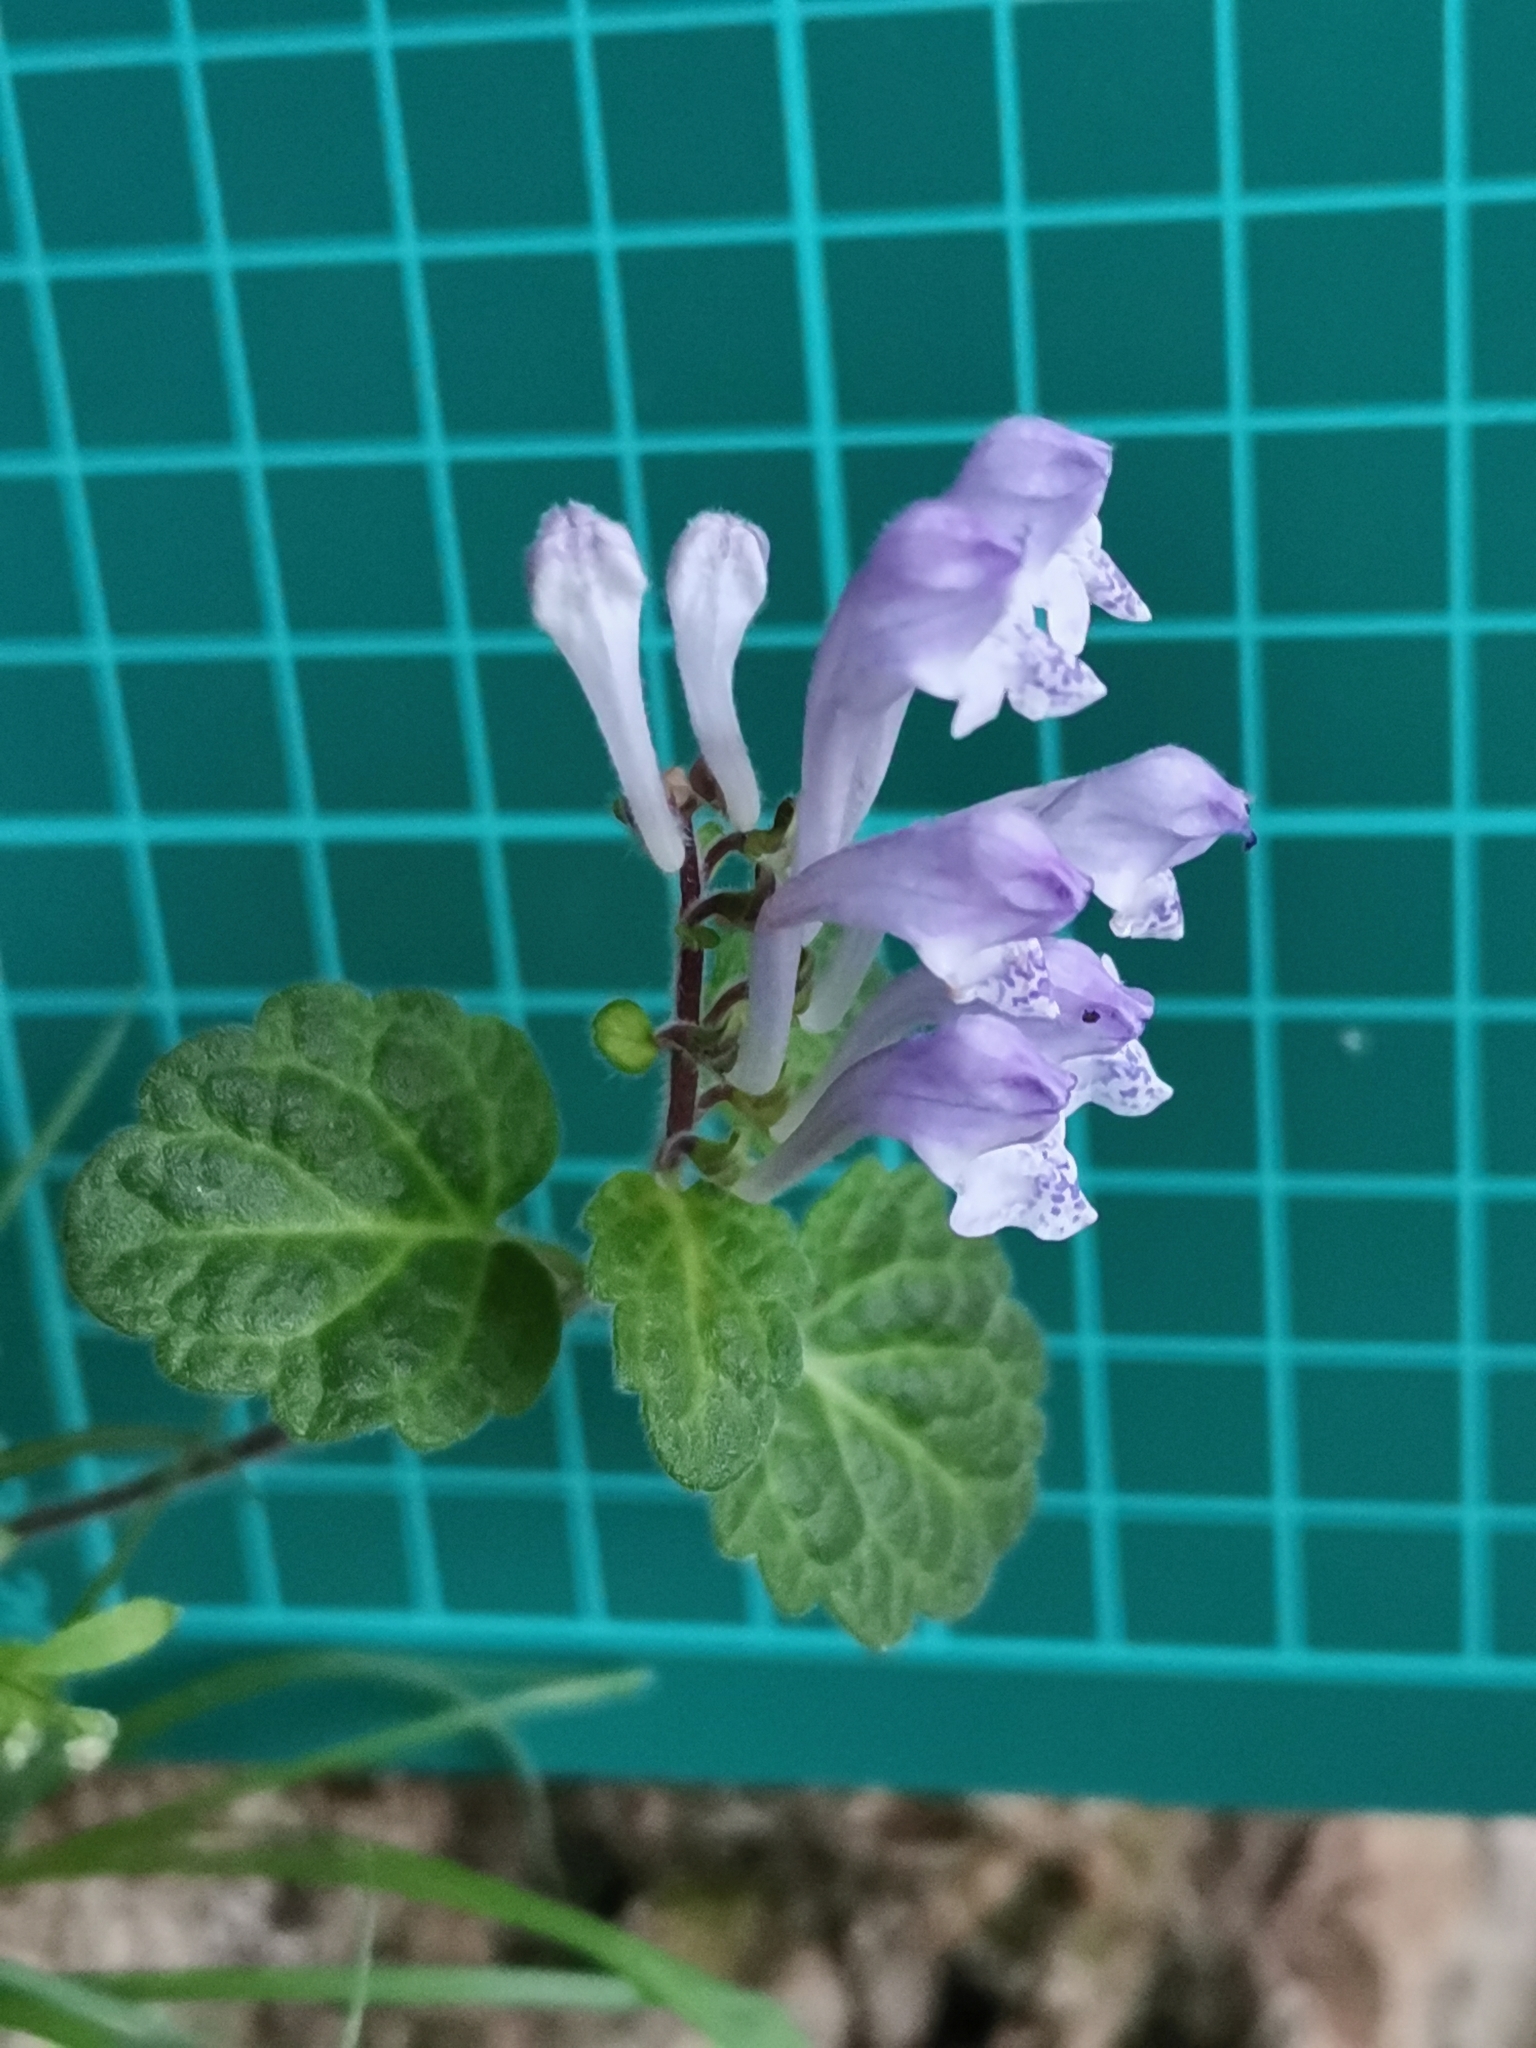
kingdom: Plantae
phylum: Tracheophyta
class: Magnoliopsida
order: Lamiales
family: Lamiaceae
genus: Scutellaria
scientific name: Scutellaria indica
